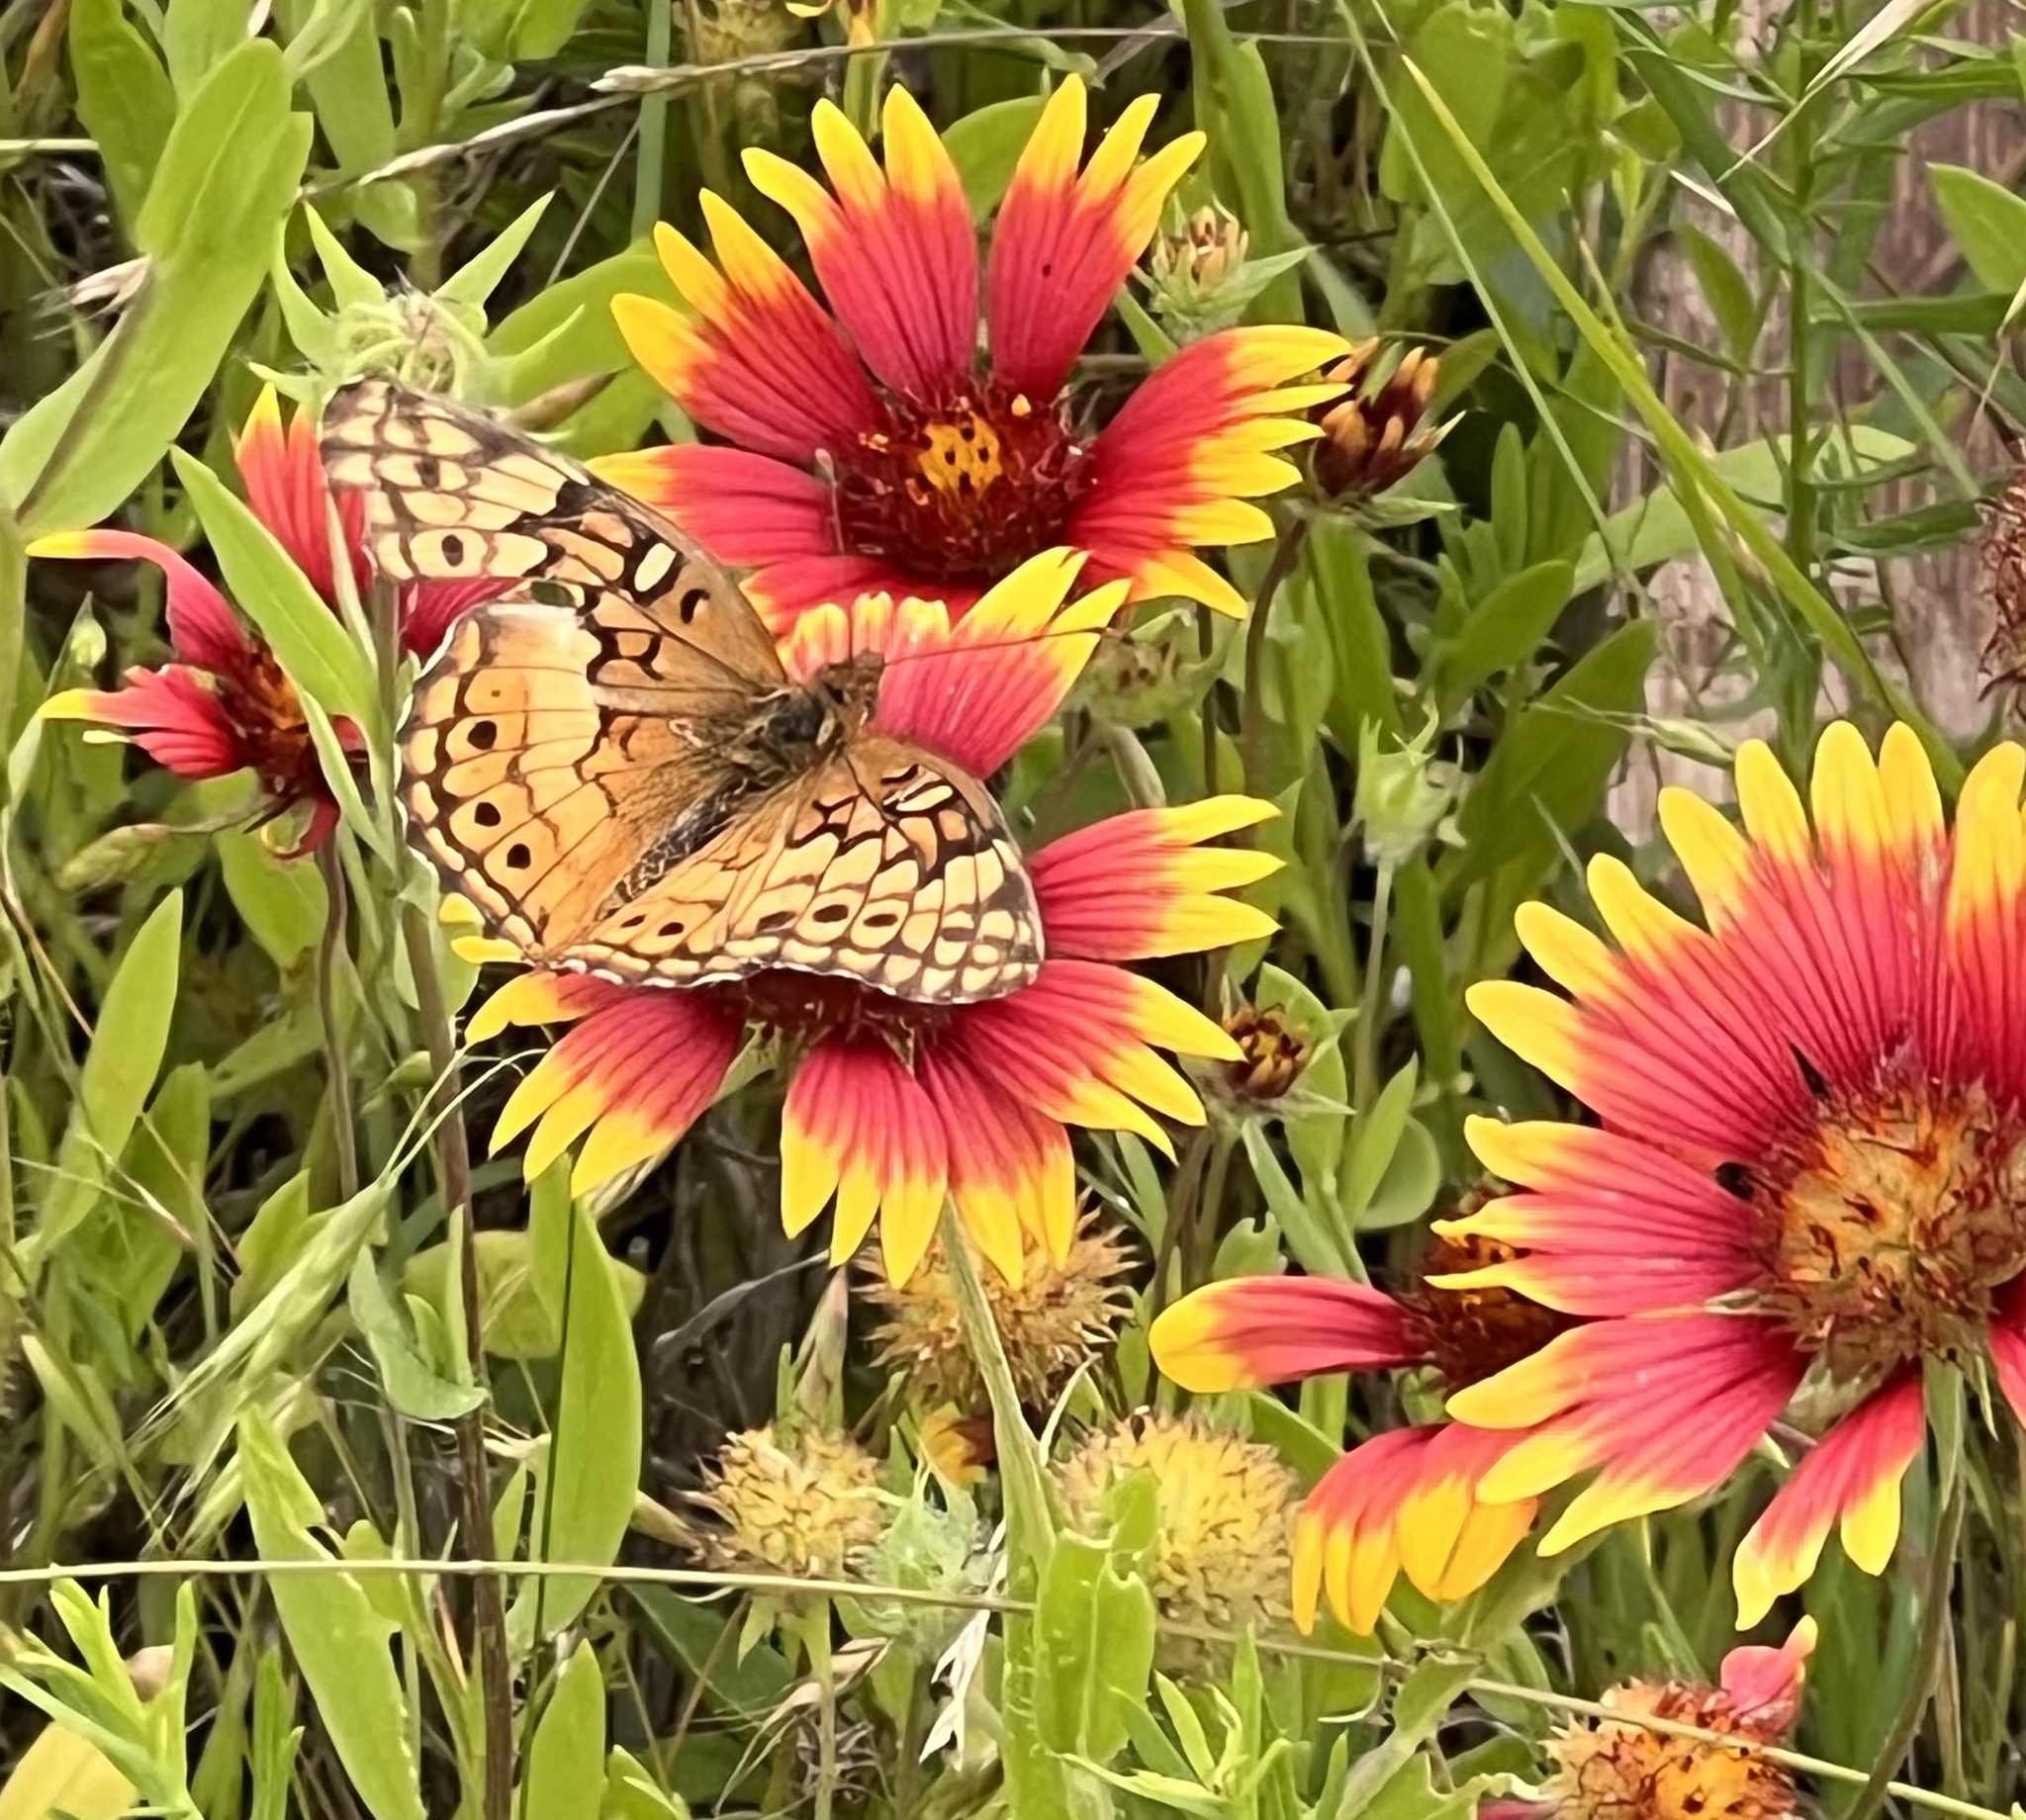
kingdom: Animalia
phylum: Arthropoda
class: Insecta
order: Lepidoptera
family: Nymphalidae
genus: Euptoieta
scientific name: Euptoieta claudia
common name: Variegated fritillary
